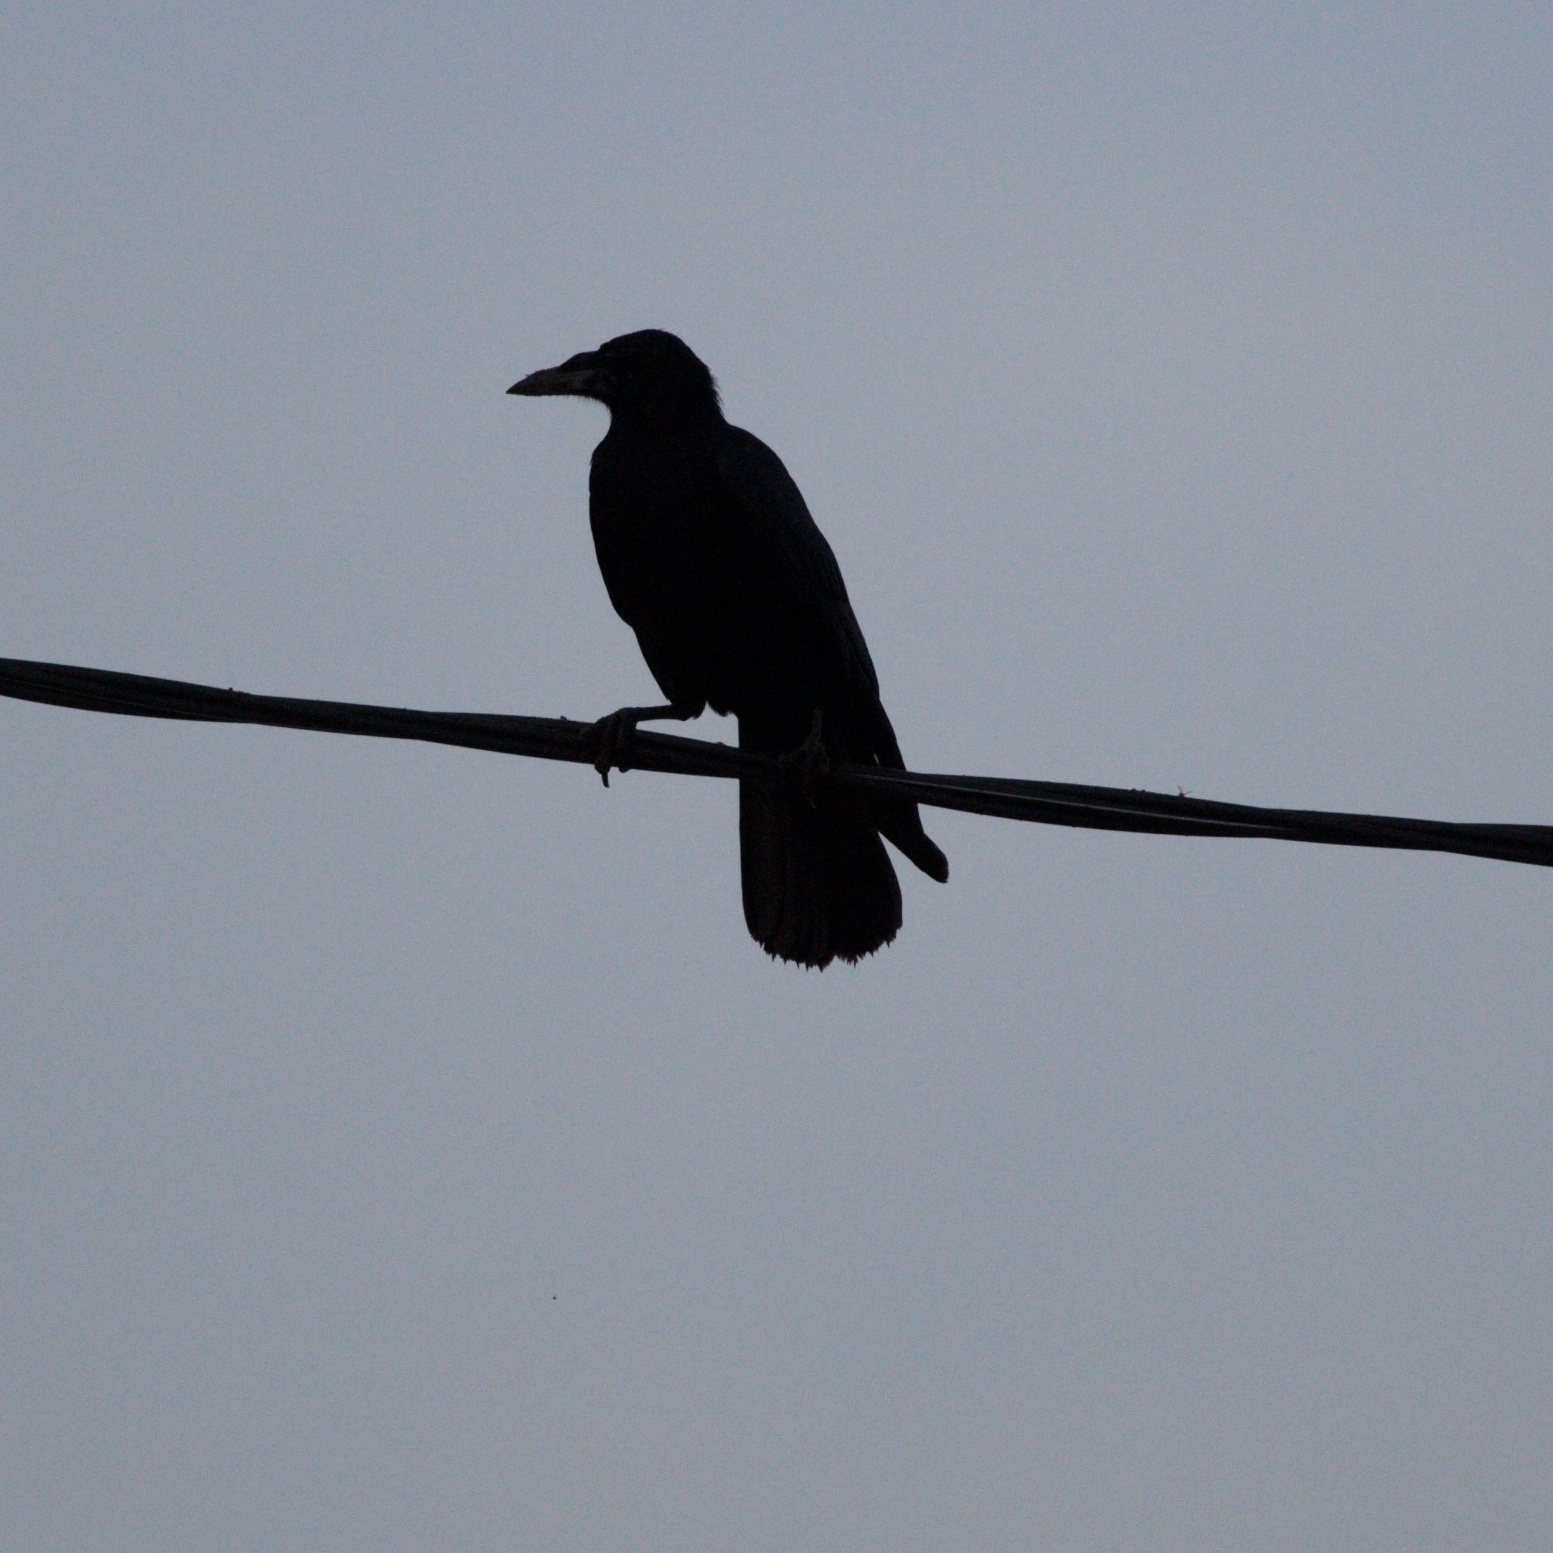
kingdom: Animalia
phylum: Chordata
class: Aves
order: Passeriformes
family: Corvidae
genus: Corvus
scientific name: Corvus frugilegus
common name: Rook
